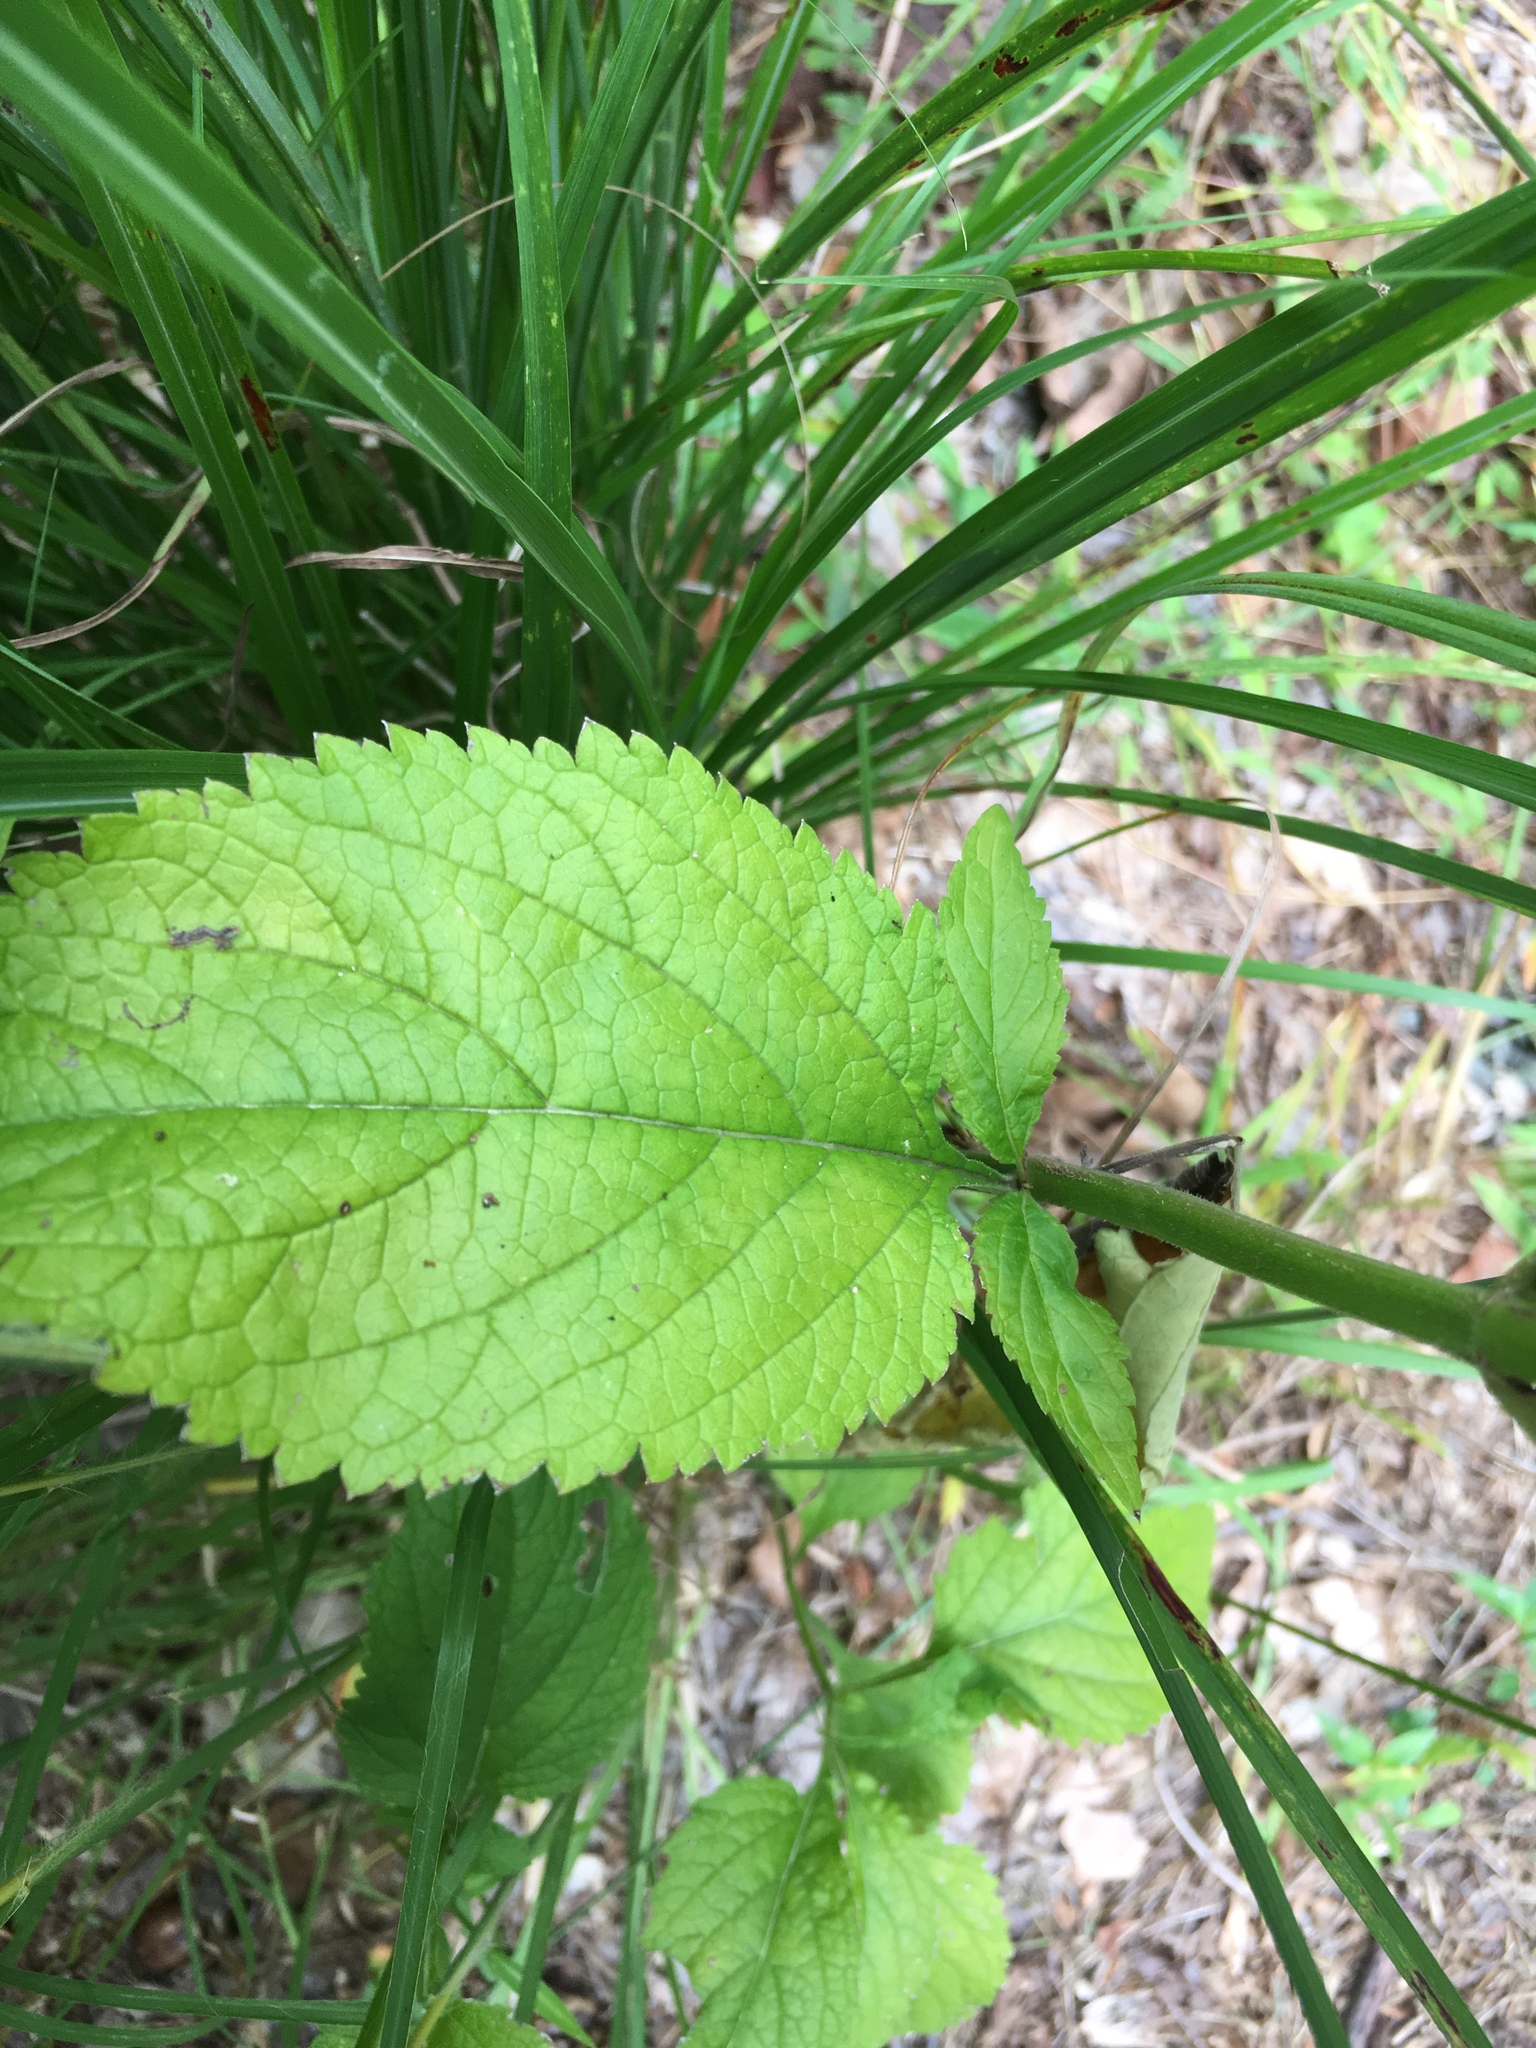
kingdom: Plantae
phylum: Tracheophyta
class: Magnoliopsida
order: Lamiales
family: Verbenaceae
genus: Verbena
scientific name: Verbena urticifolia
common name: Nettle-leaved vervain
